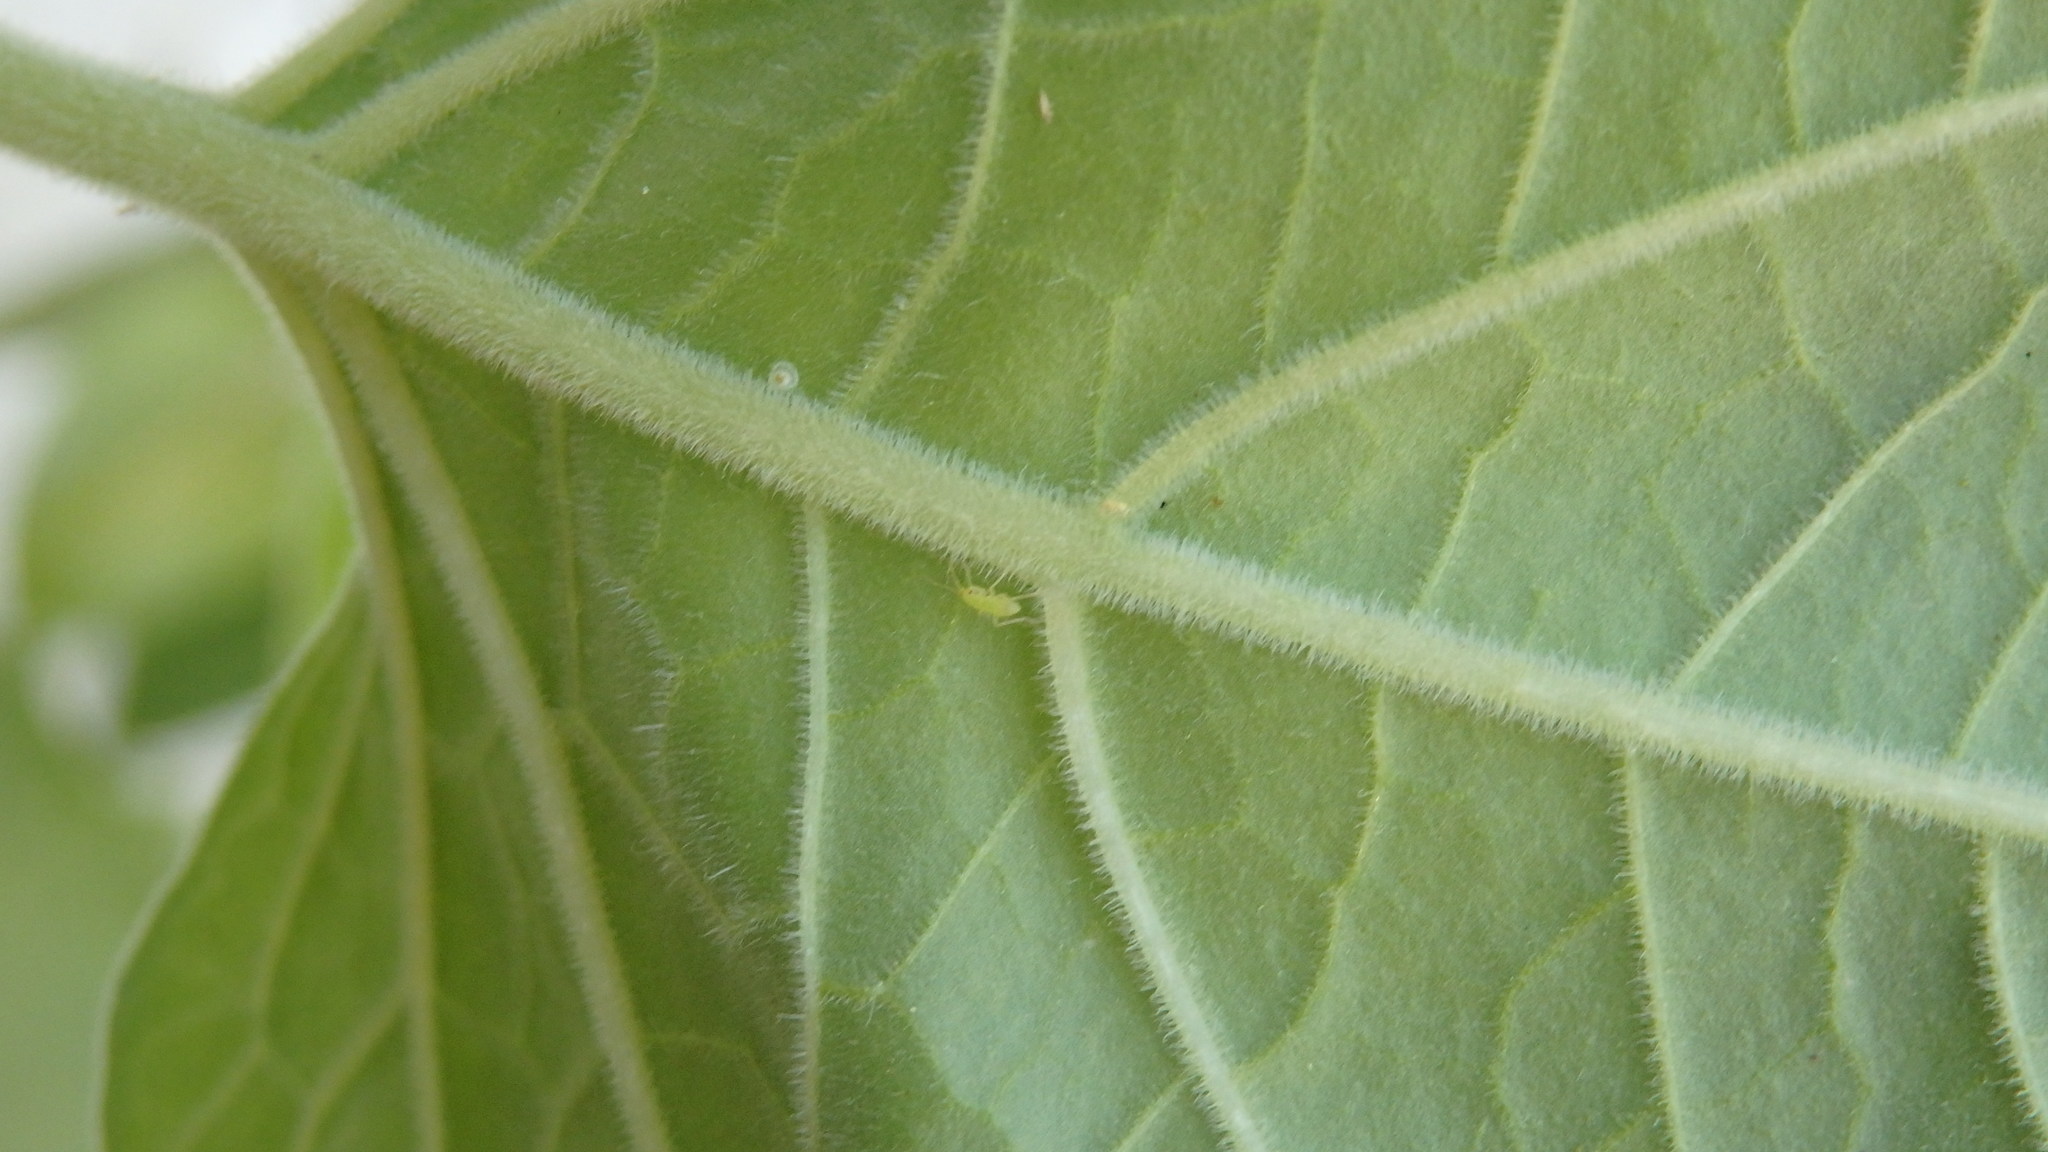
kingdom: Plantae
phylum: Tracheophyta
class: Magnoliopsida
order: Solanales
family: Solanaceae
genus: Physalis
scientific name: Physalis peruviana
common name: Cape-gooseberry
